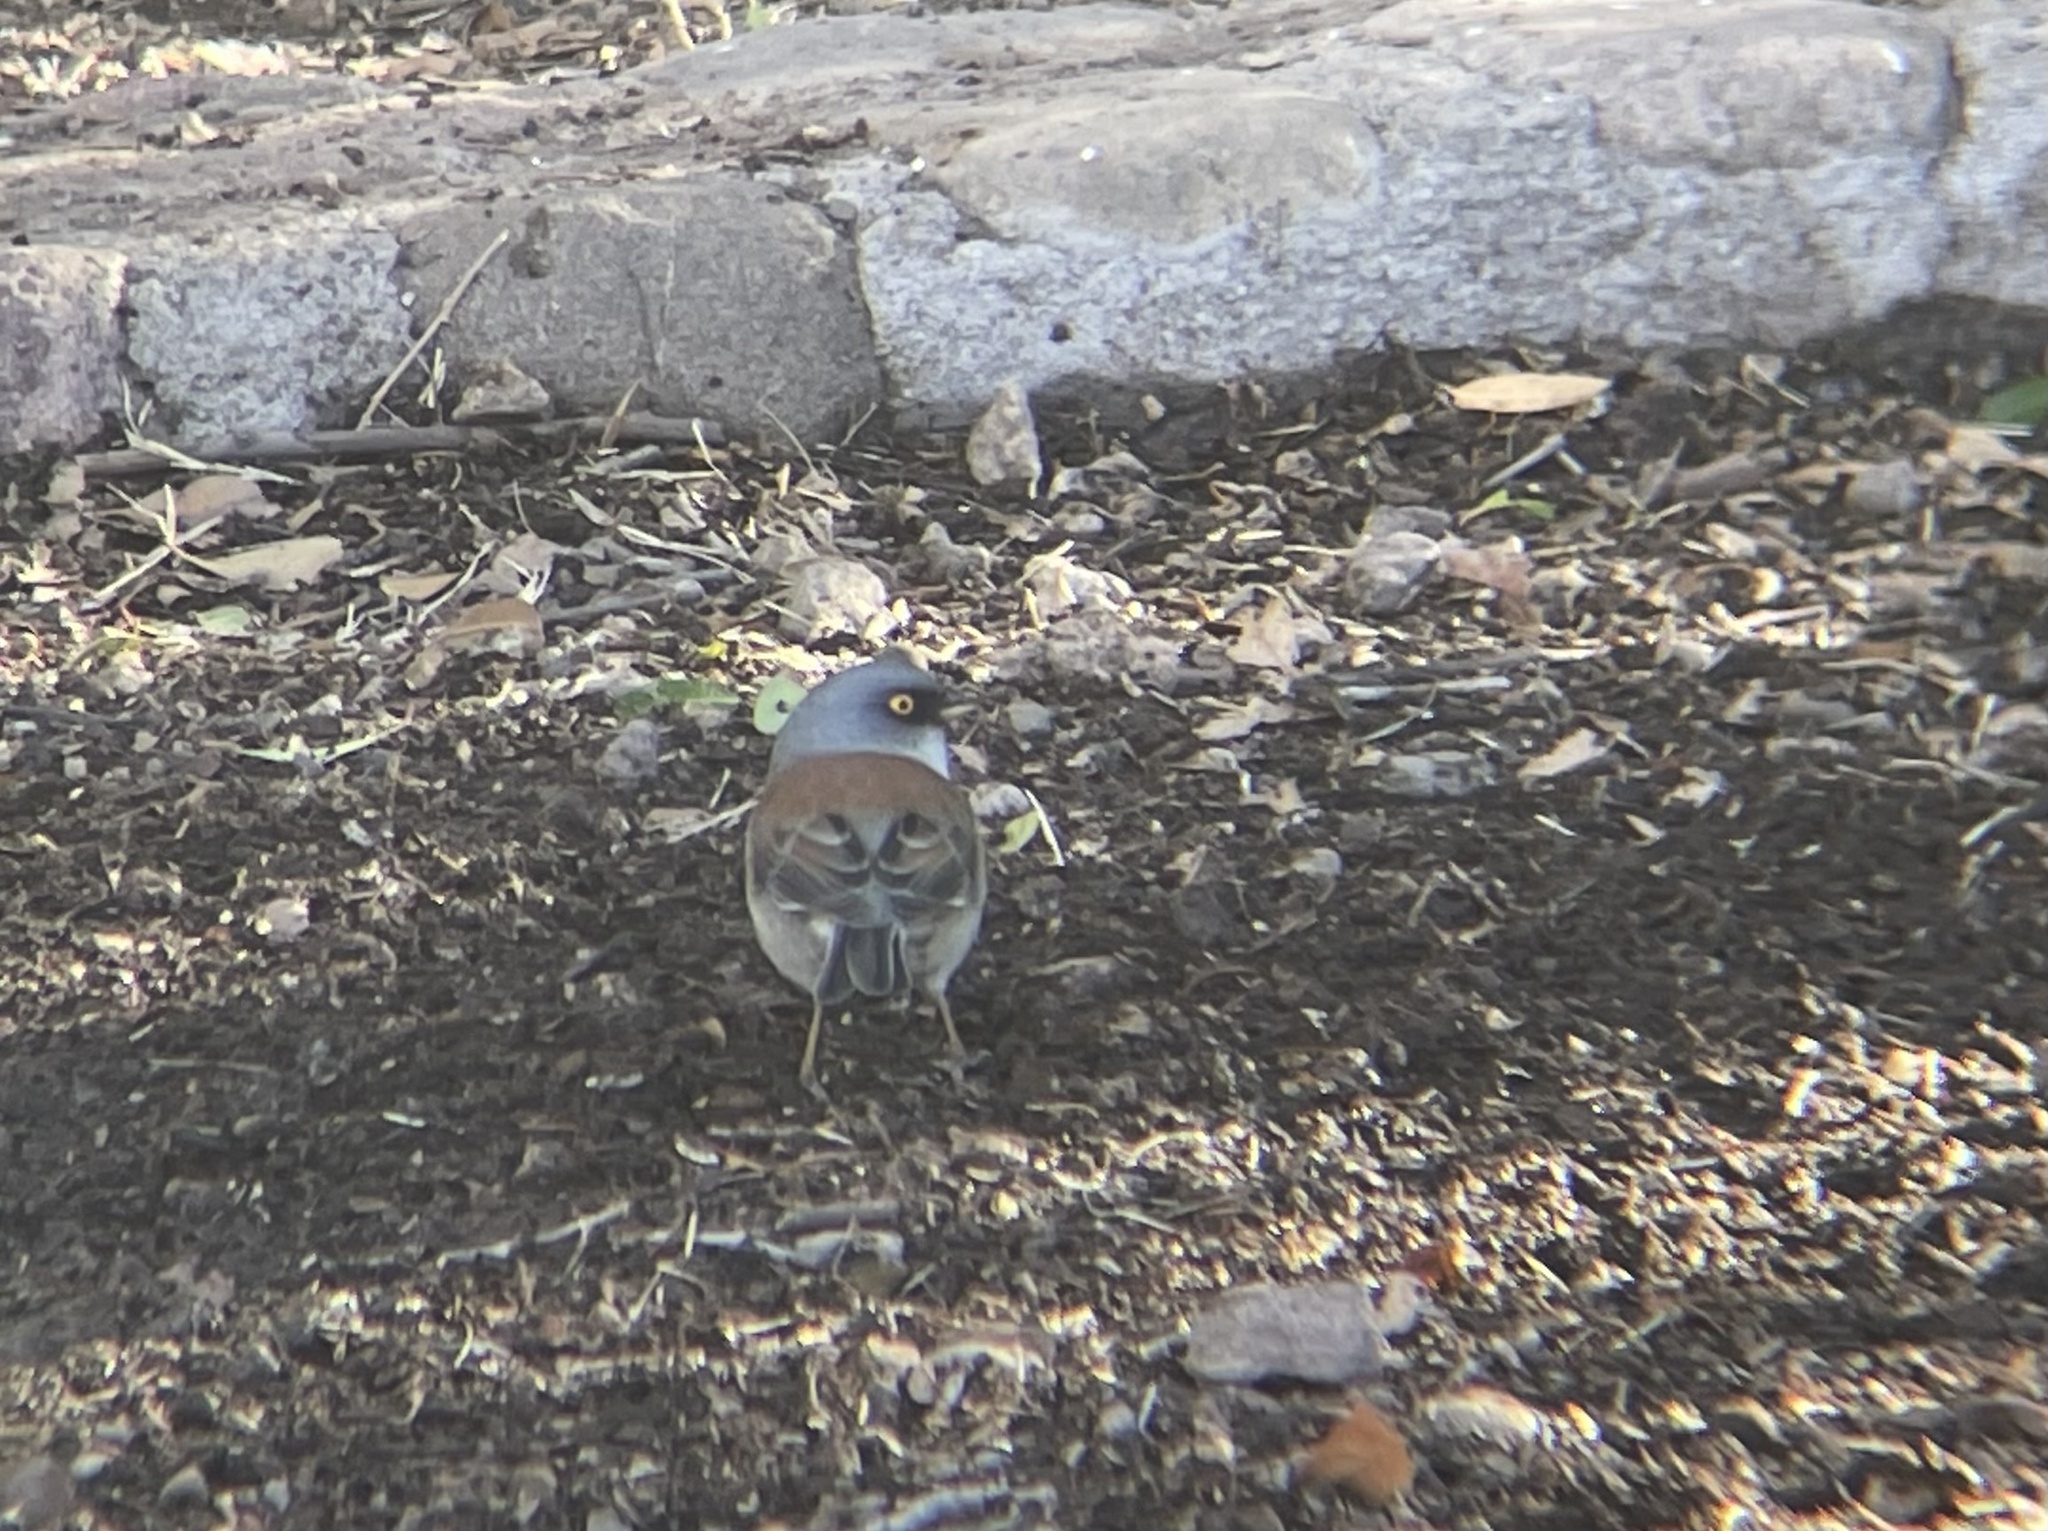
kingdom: Animalia
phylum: Chordata
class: Aves
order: Passeriformes
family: Passerellidae
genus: Junco
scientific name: Junco phaeonotus
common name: Yellow-eyed junco
